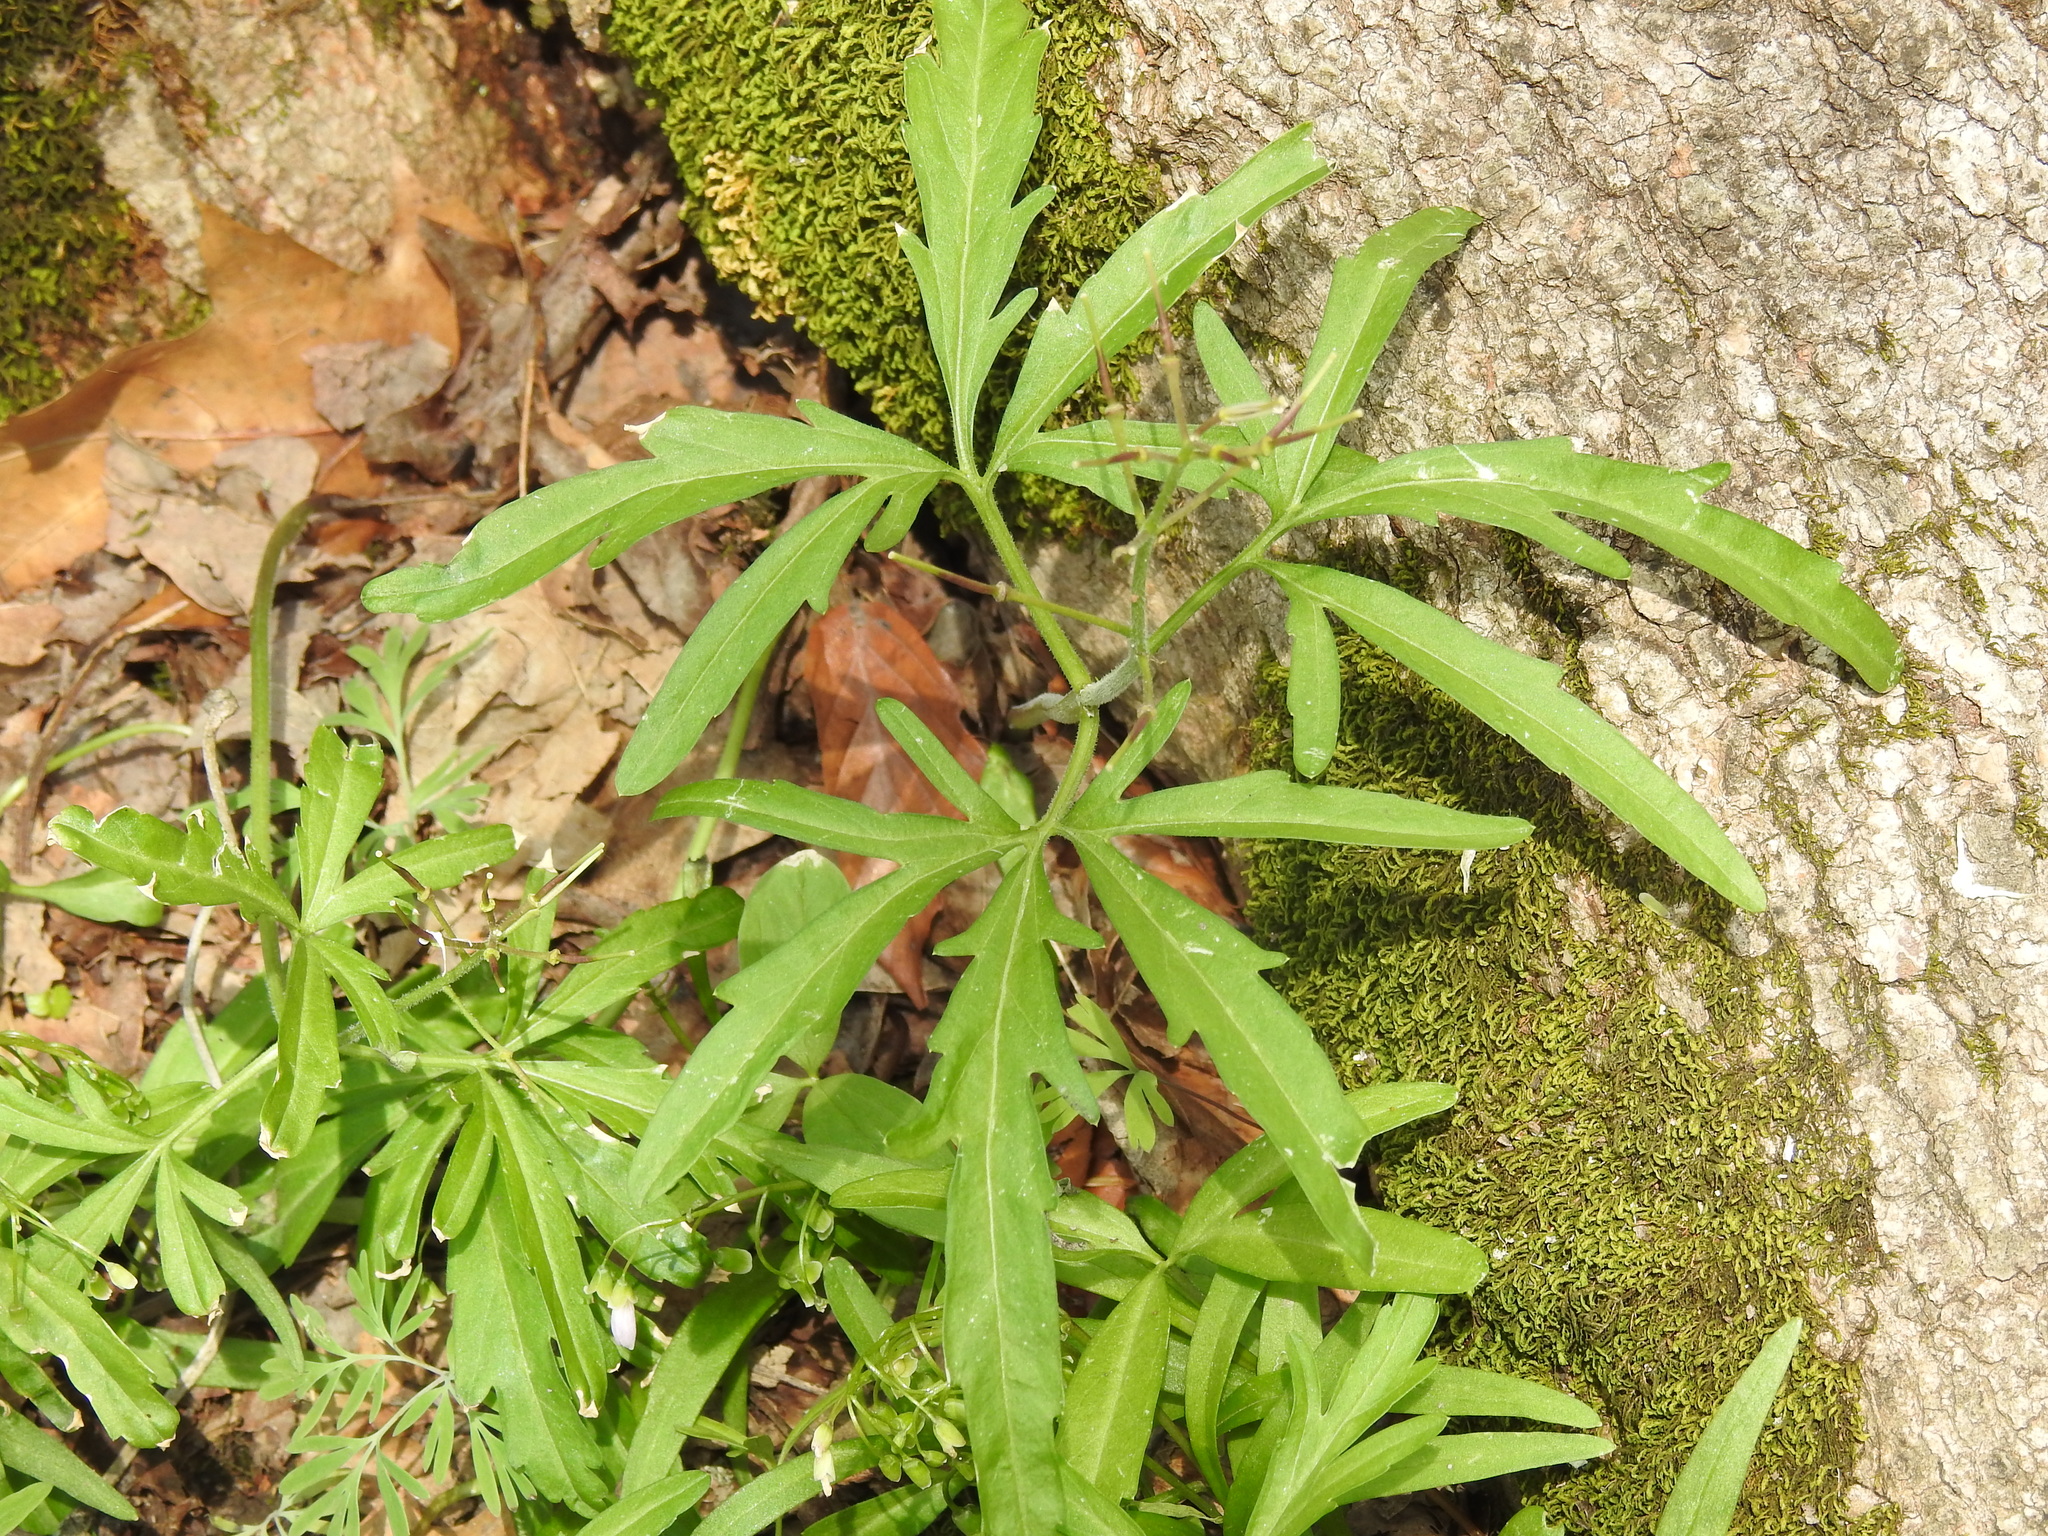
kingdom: Plantae
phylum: Tracheophyta
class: Magnoliopsida
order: Brassicales
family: Brassicaceae
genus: Cardamine
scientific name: Cardamine concatenata
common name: Cut-leaf toothcup
